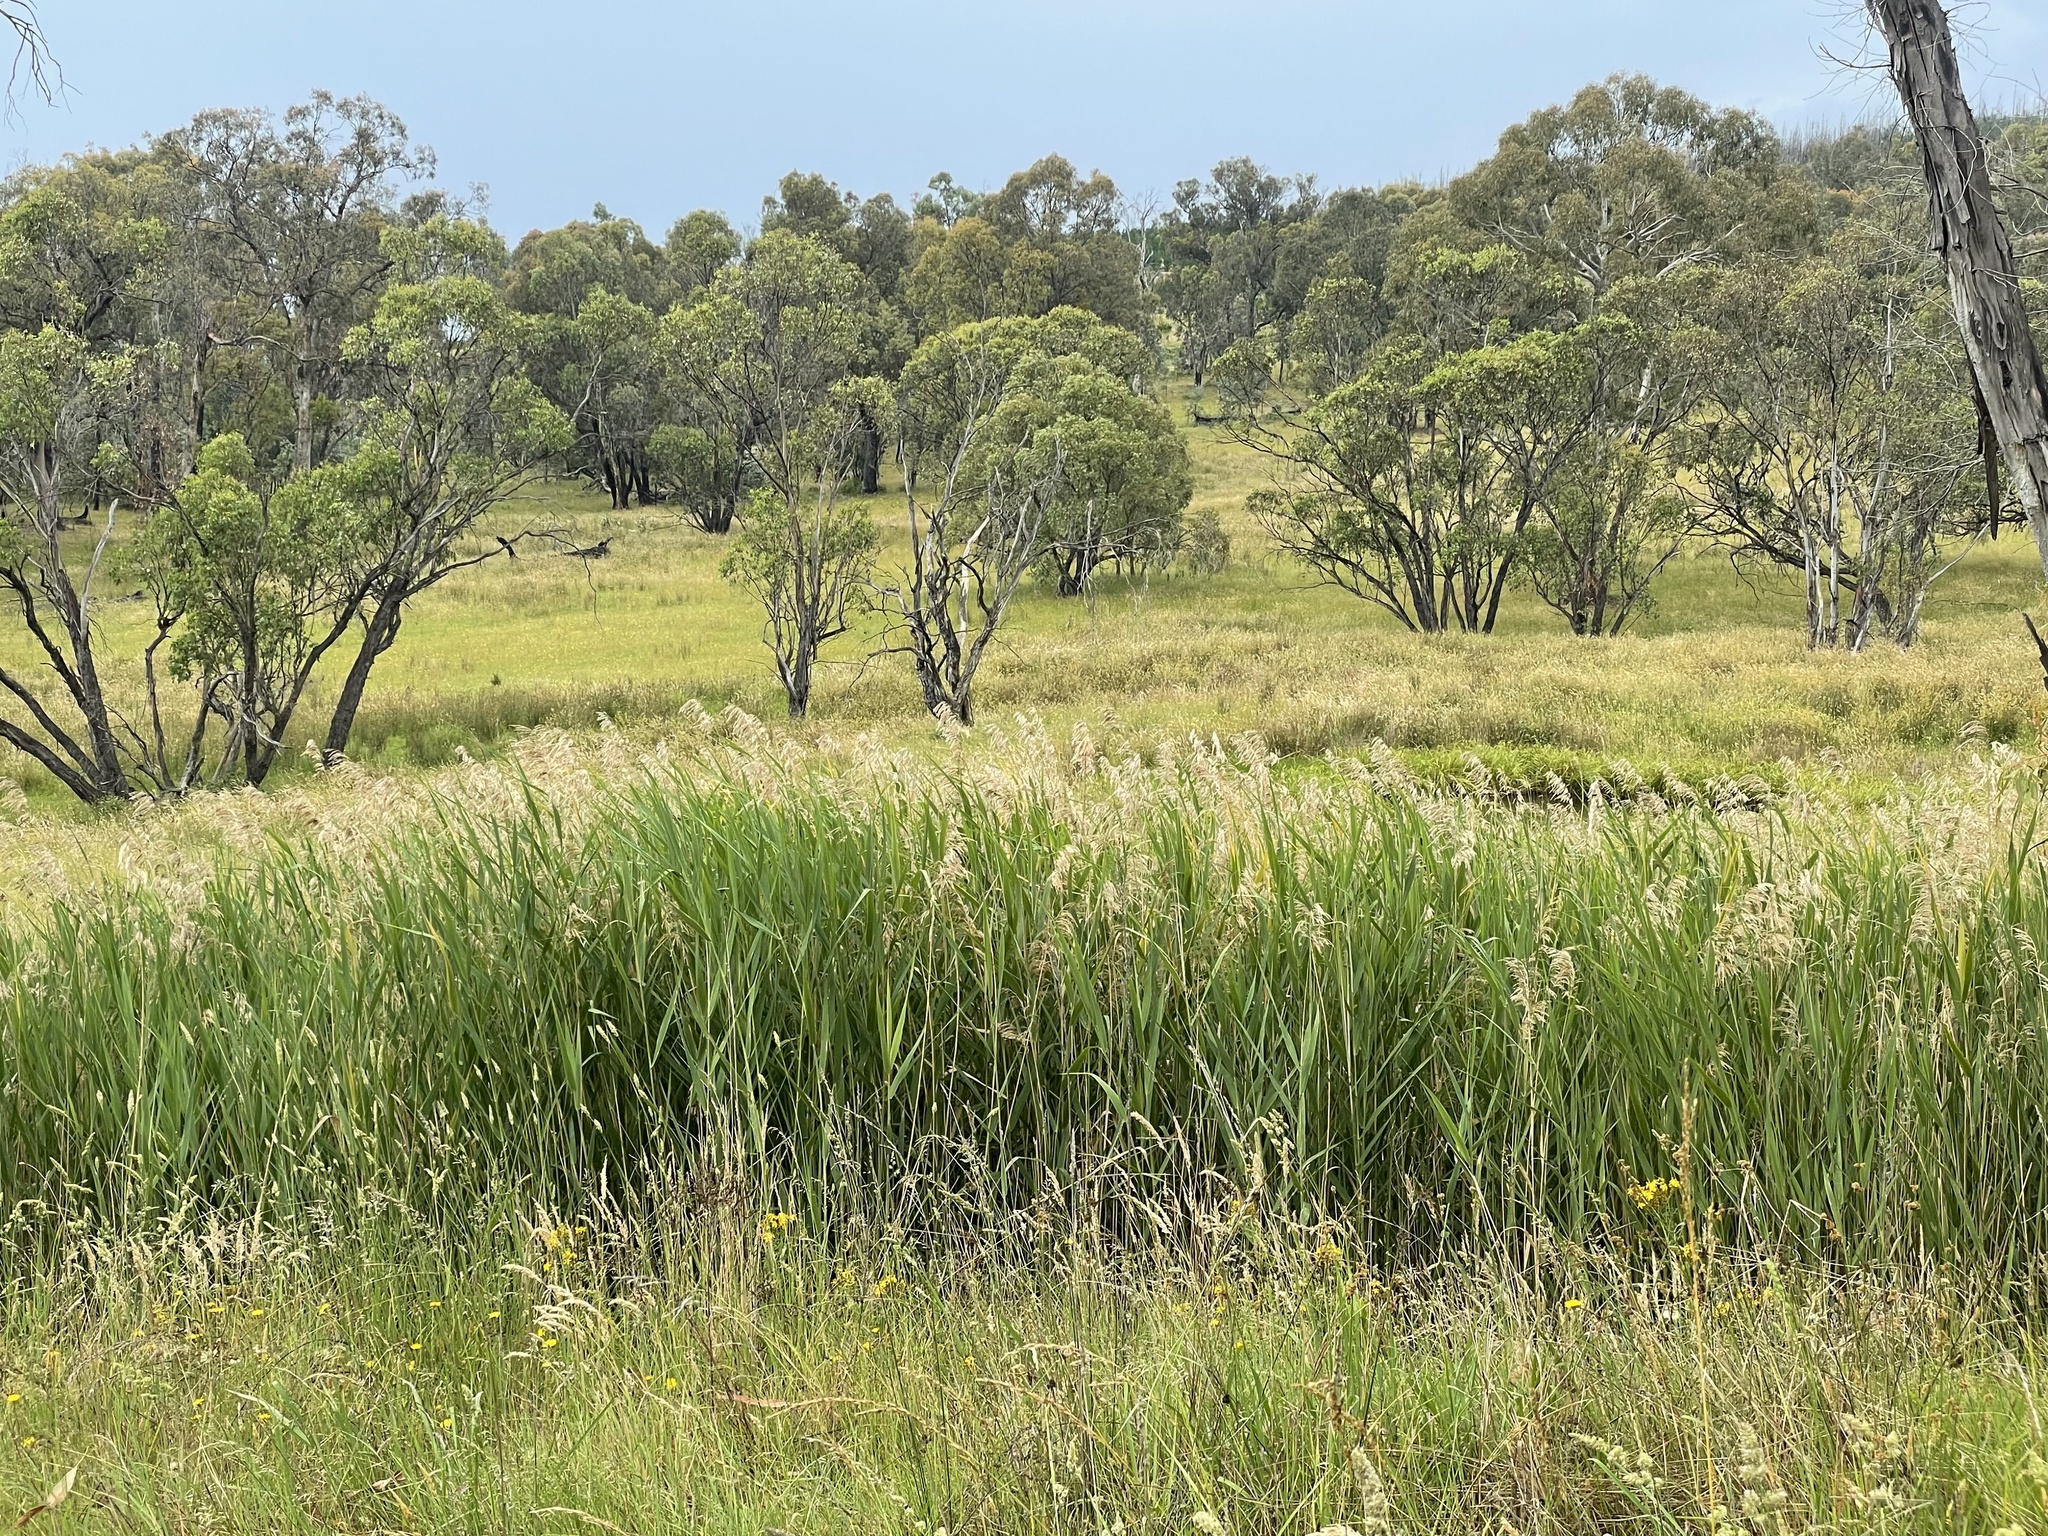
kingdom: Plantae
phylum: Tracheophyta
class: Liliopsida
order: Poales
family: Poaceae
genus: Phragmites
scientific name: Phragmites australis
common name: Common reed
